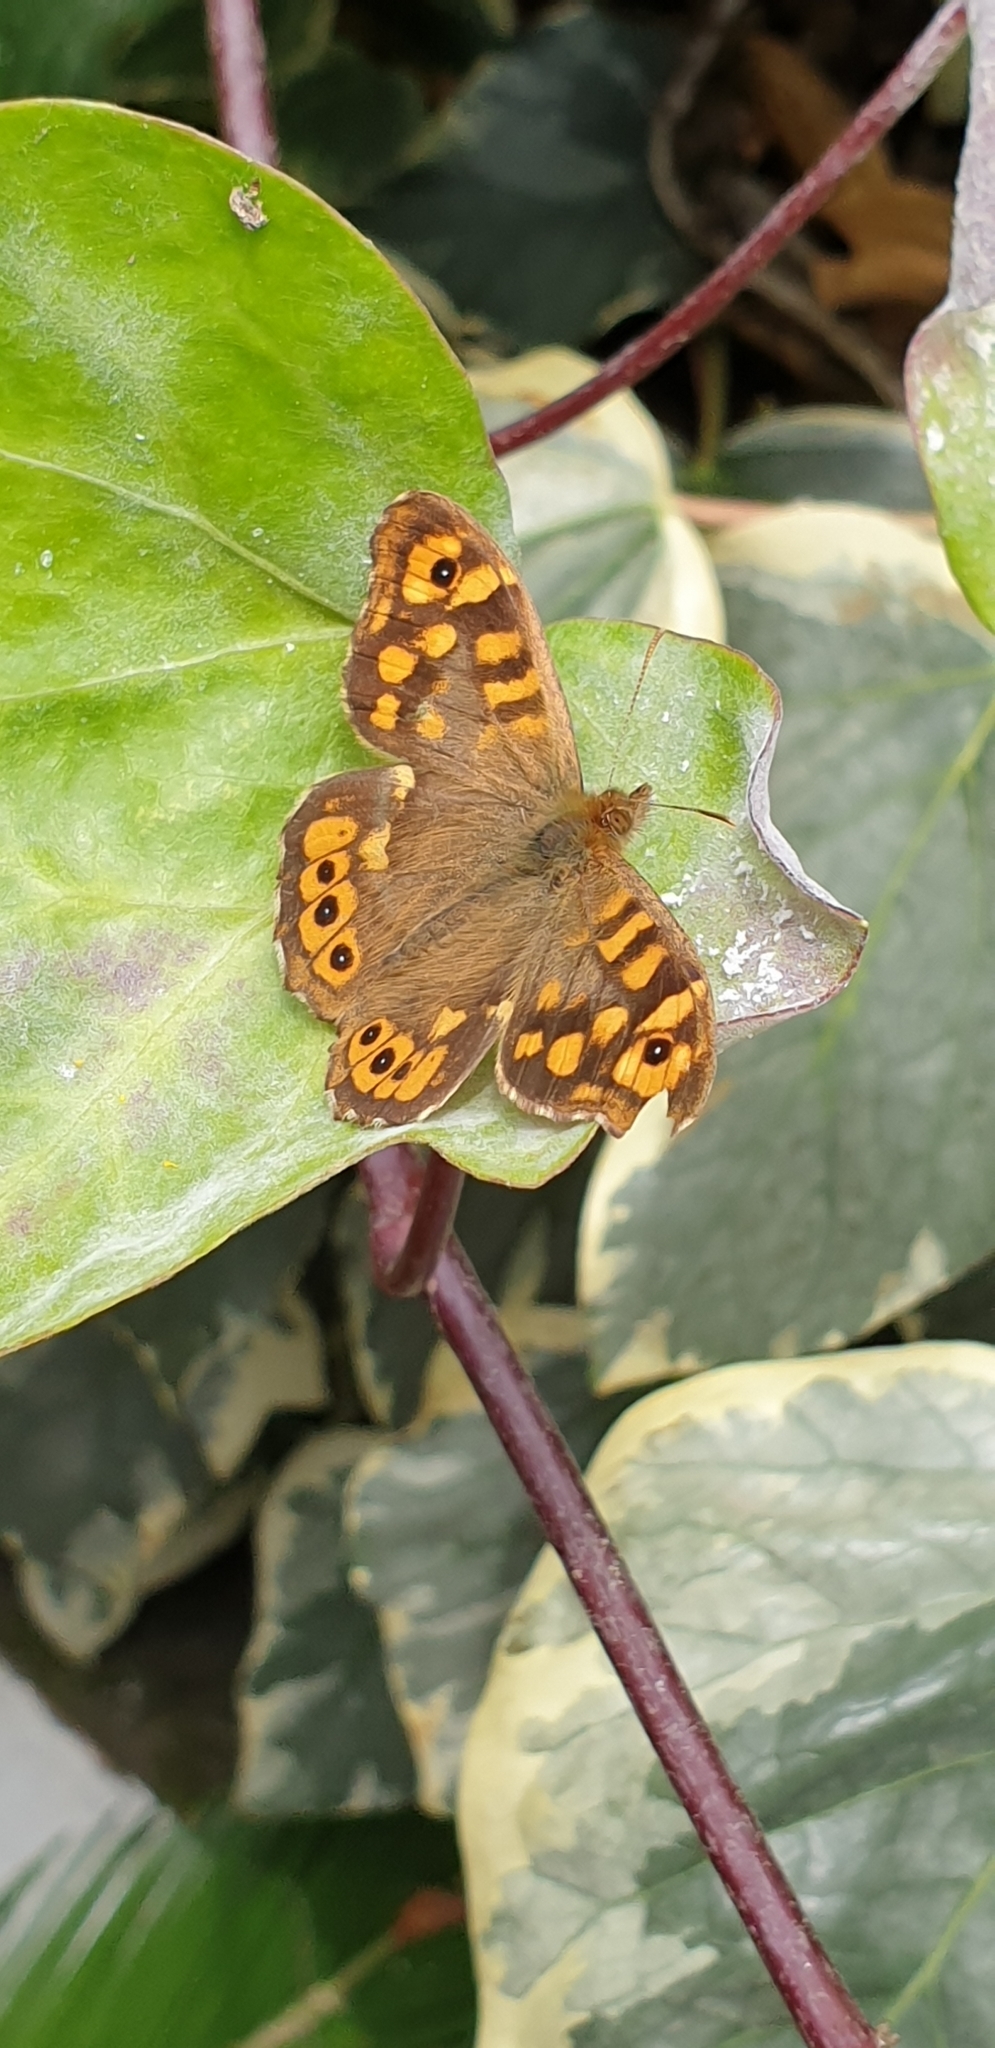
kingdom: Animalia
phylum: Arthropoda
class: Insecta
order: Lepidoptera
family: Nymphalidae
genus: Pararge
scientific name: Pararge aegeria
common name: Speckled wood
